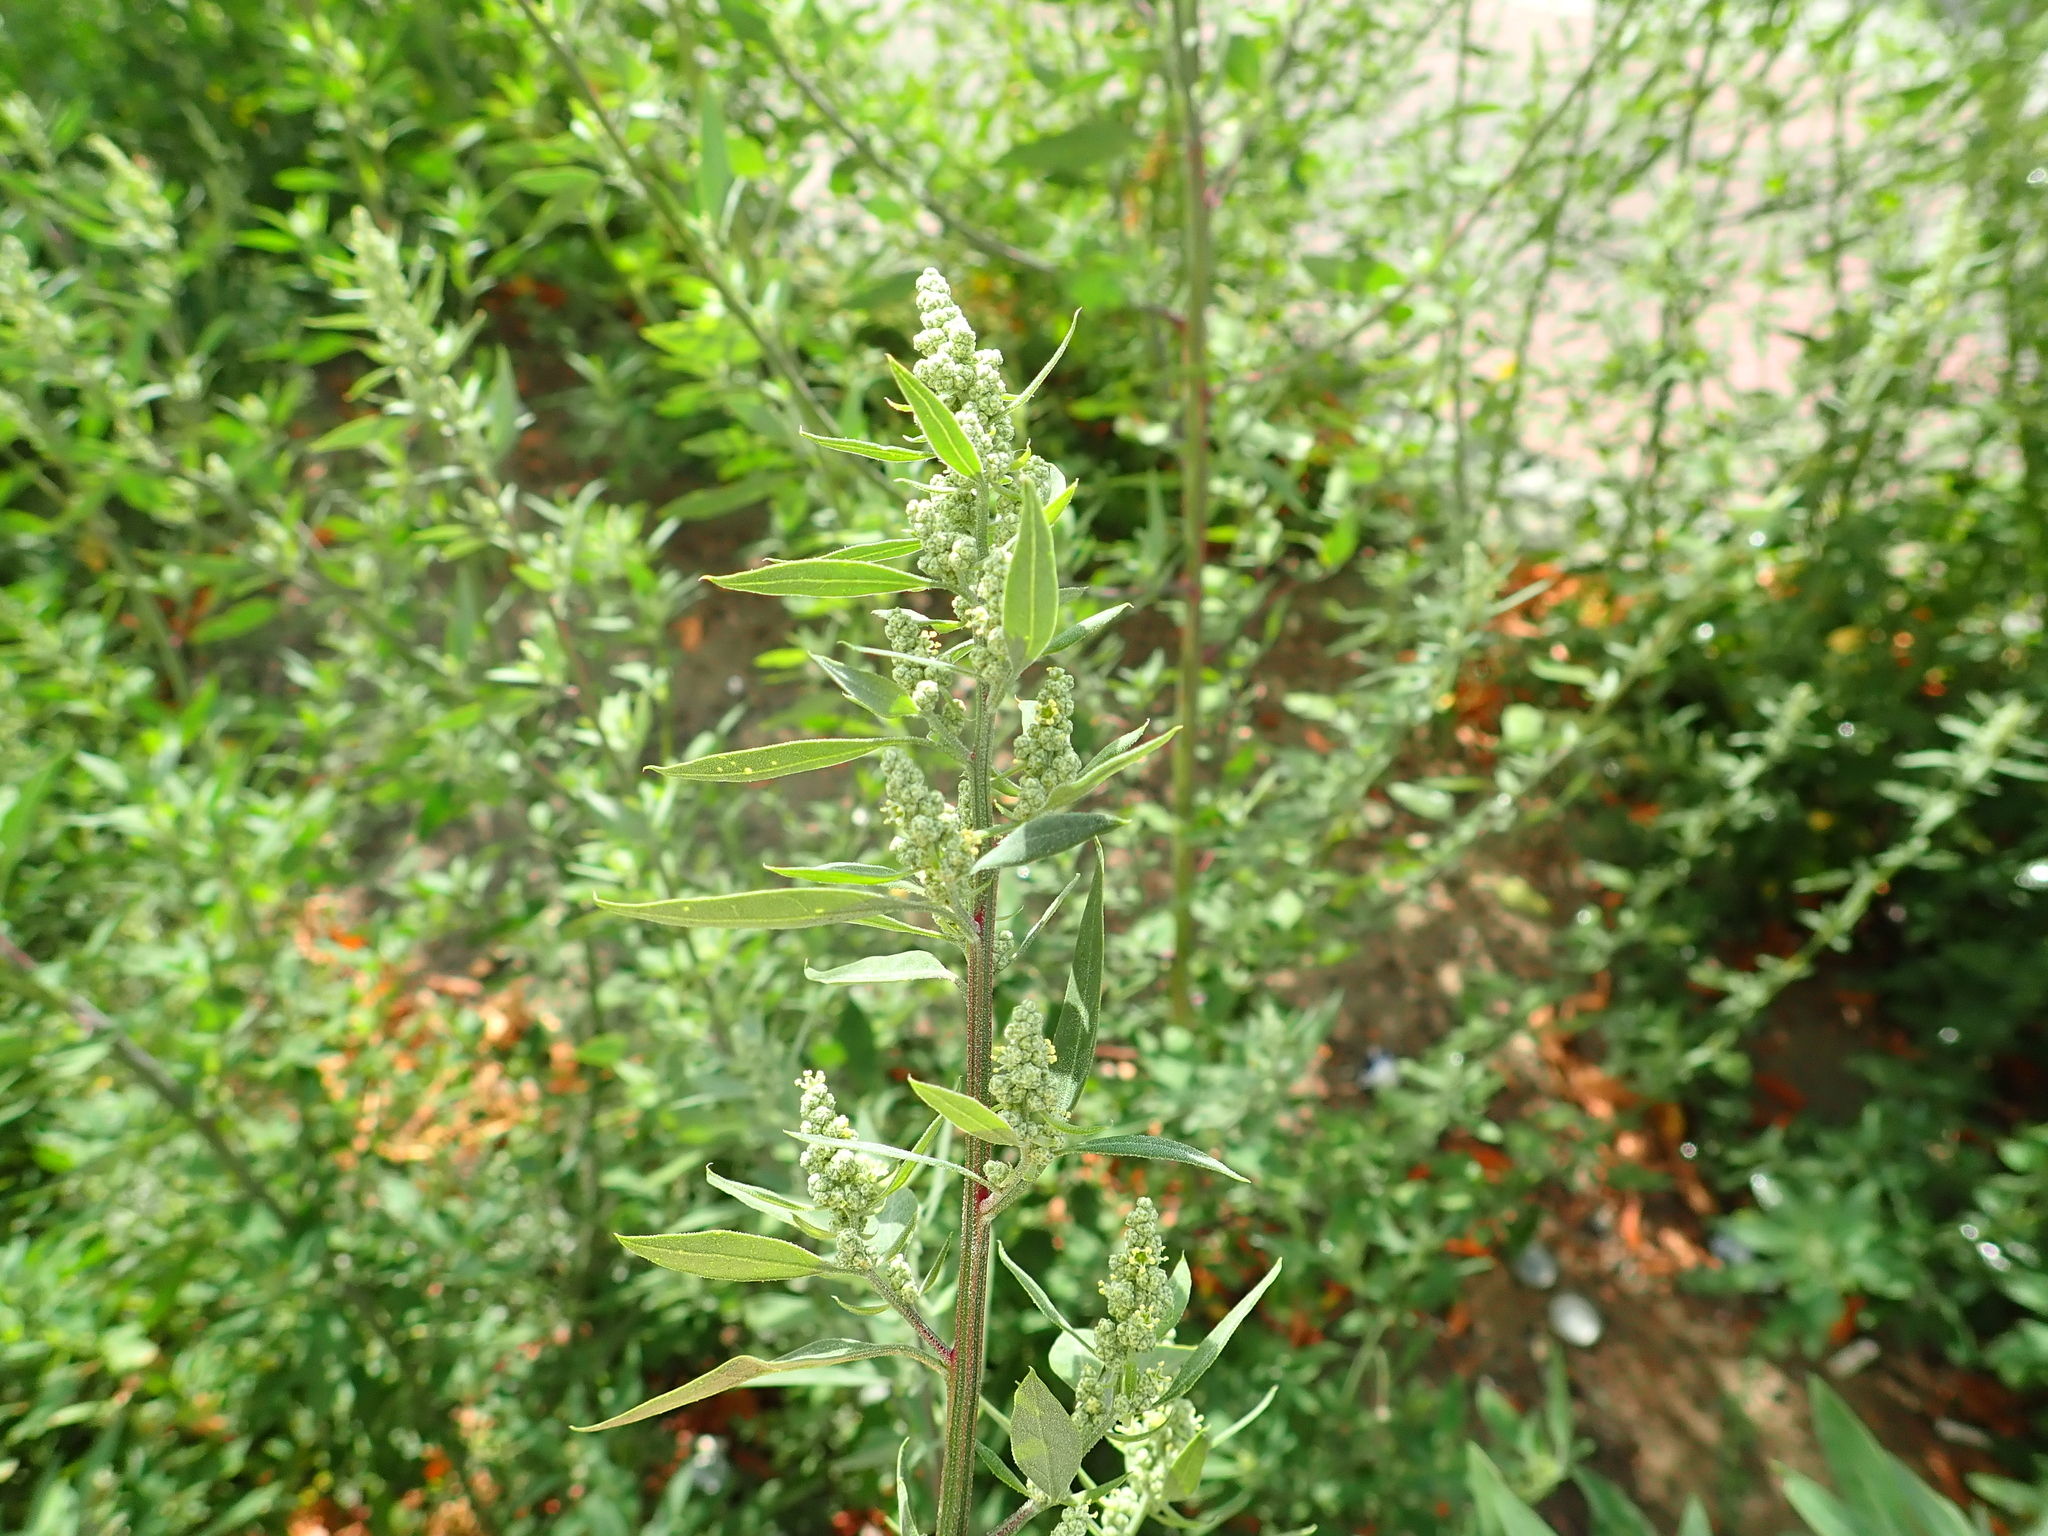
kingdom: Plantae
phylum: Tracheophyta
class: Magnoliopsida
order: Caryophyllales
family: Amaranthaceae
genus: Chenopodium
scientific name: Chenopodium album
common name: Fat-hen
